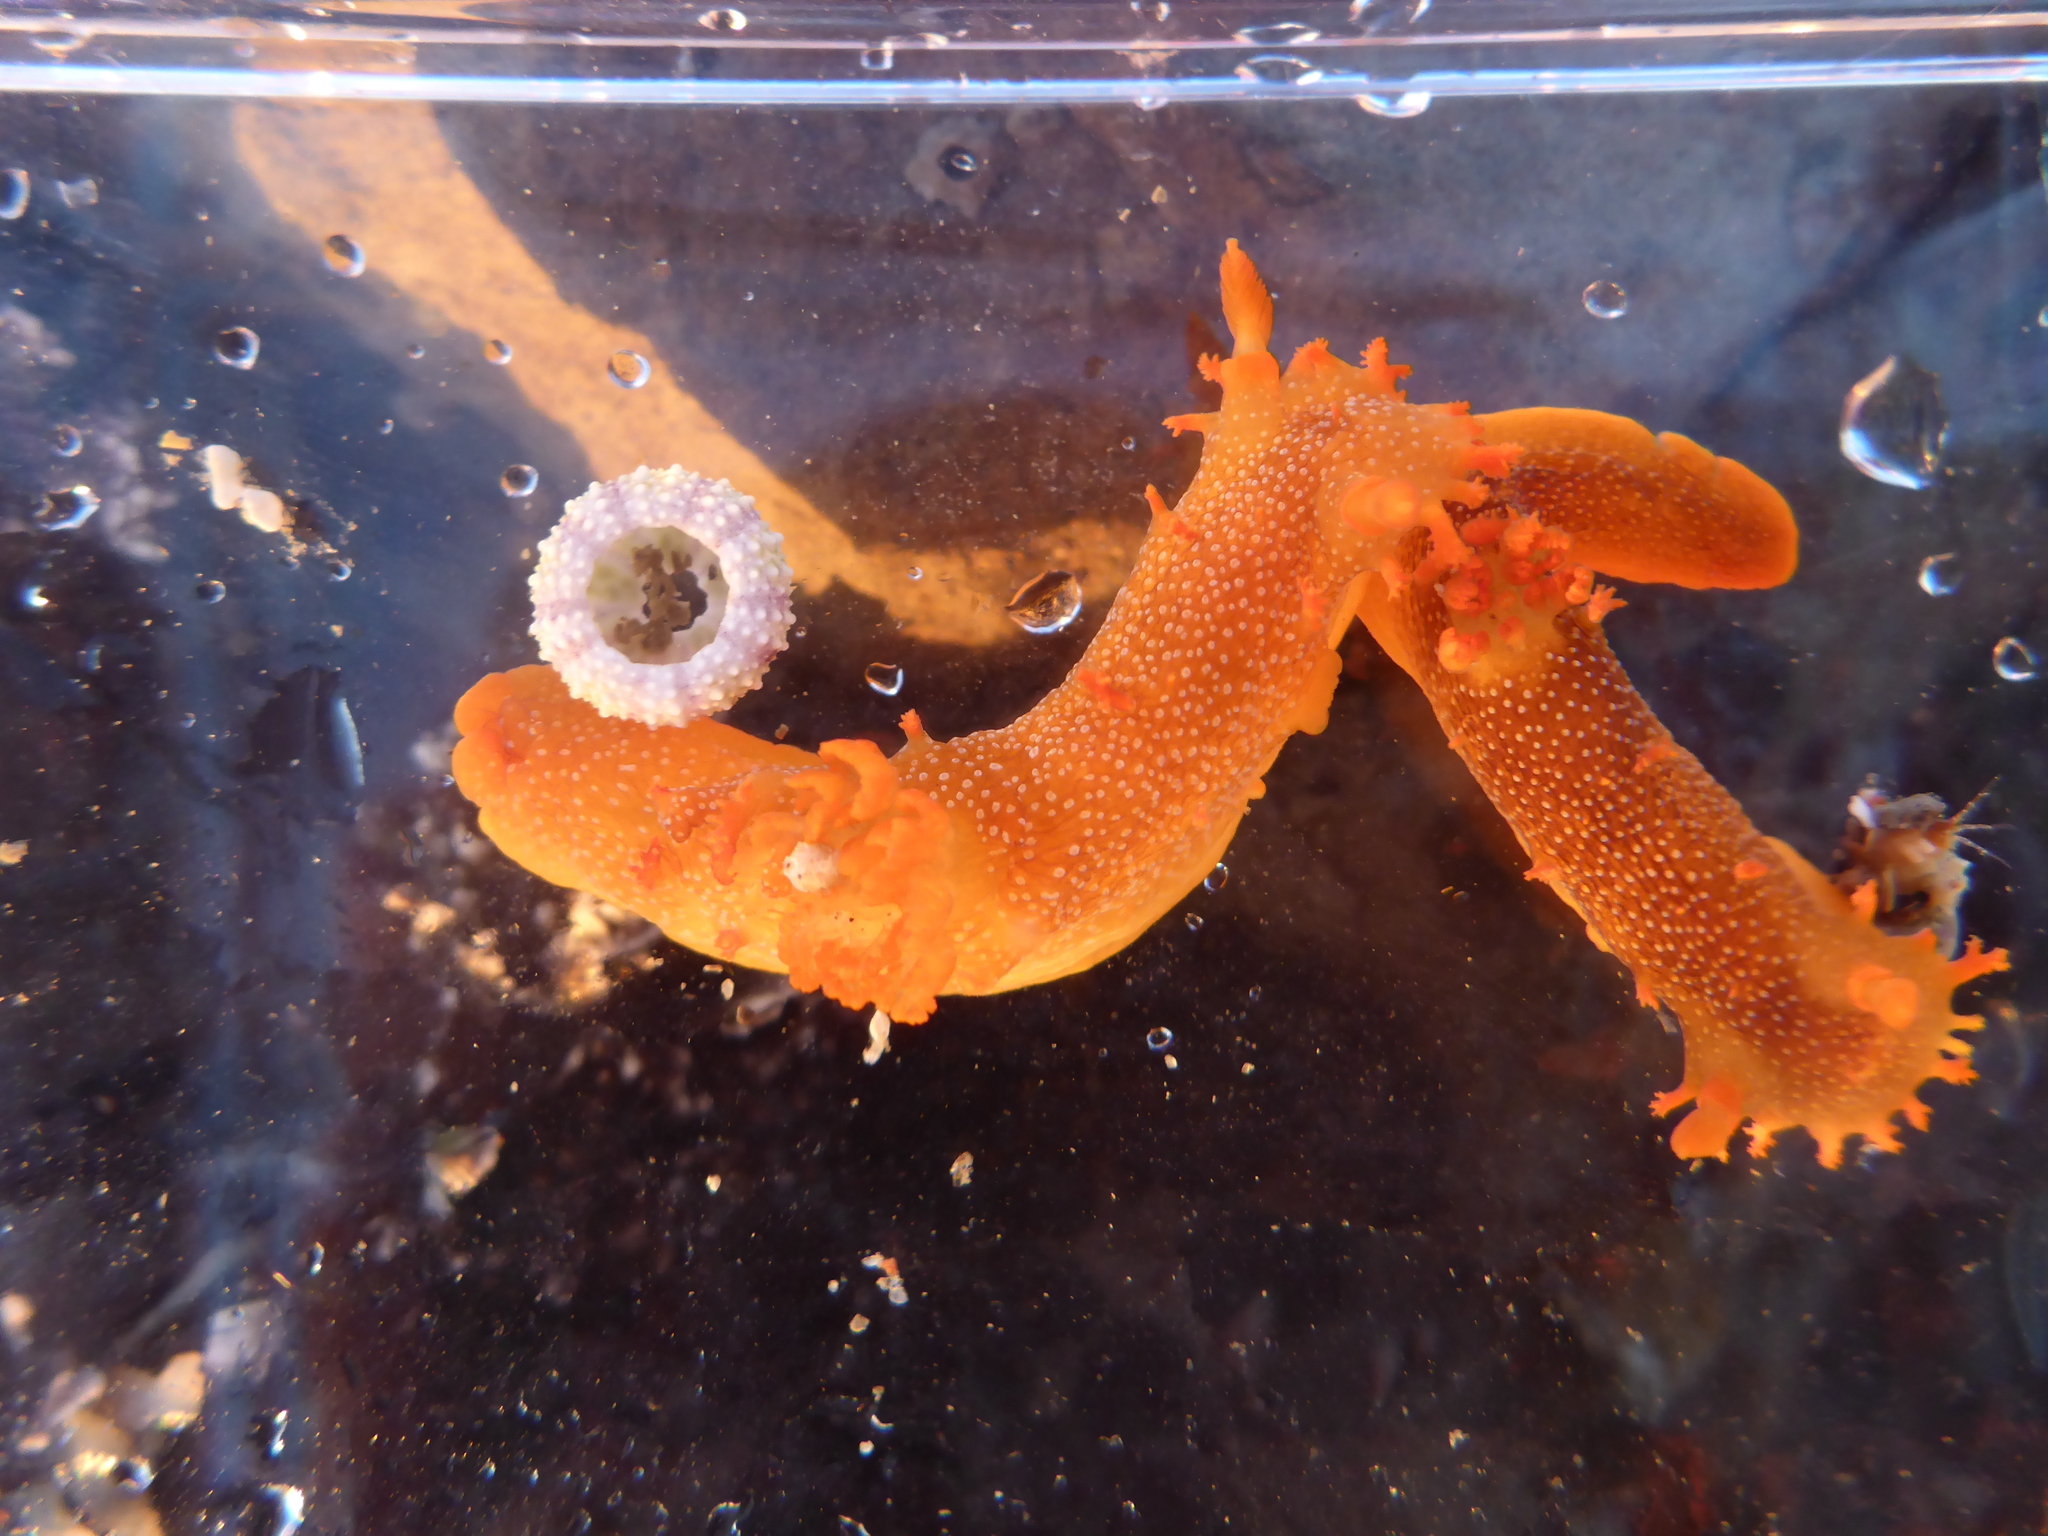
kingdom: Animalia
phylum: Mollusca
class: Gastropoda
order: Nudibranchia
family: Polyceridae
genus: Triopha
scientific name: Triopha maculata
